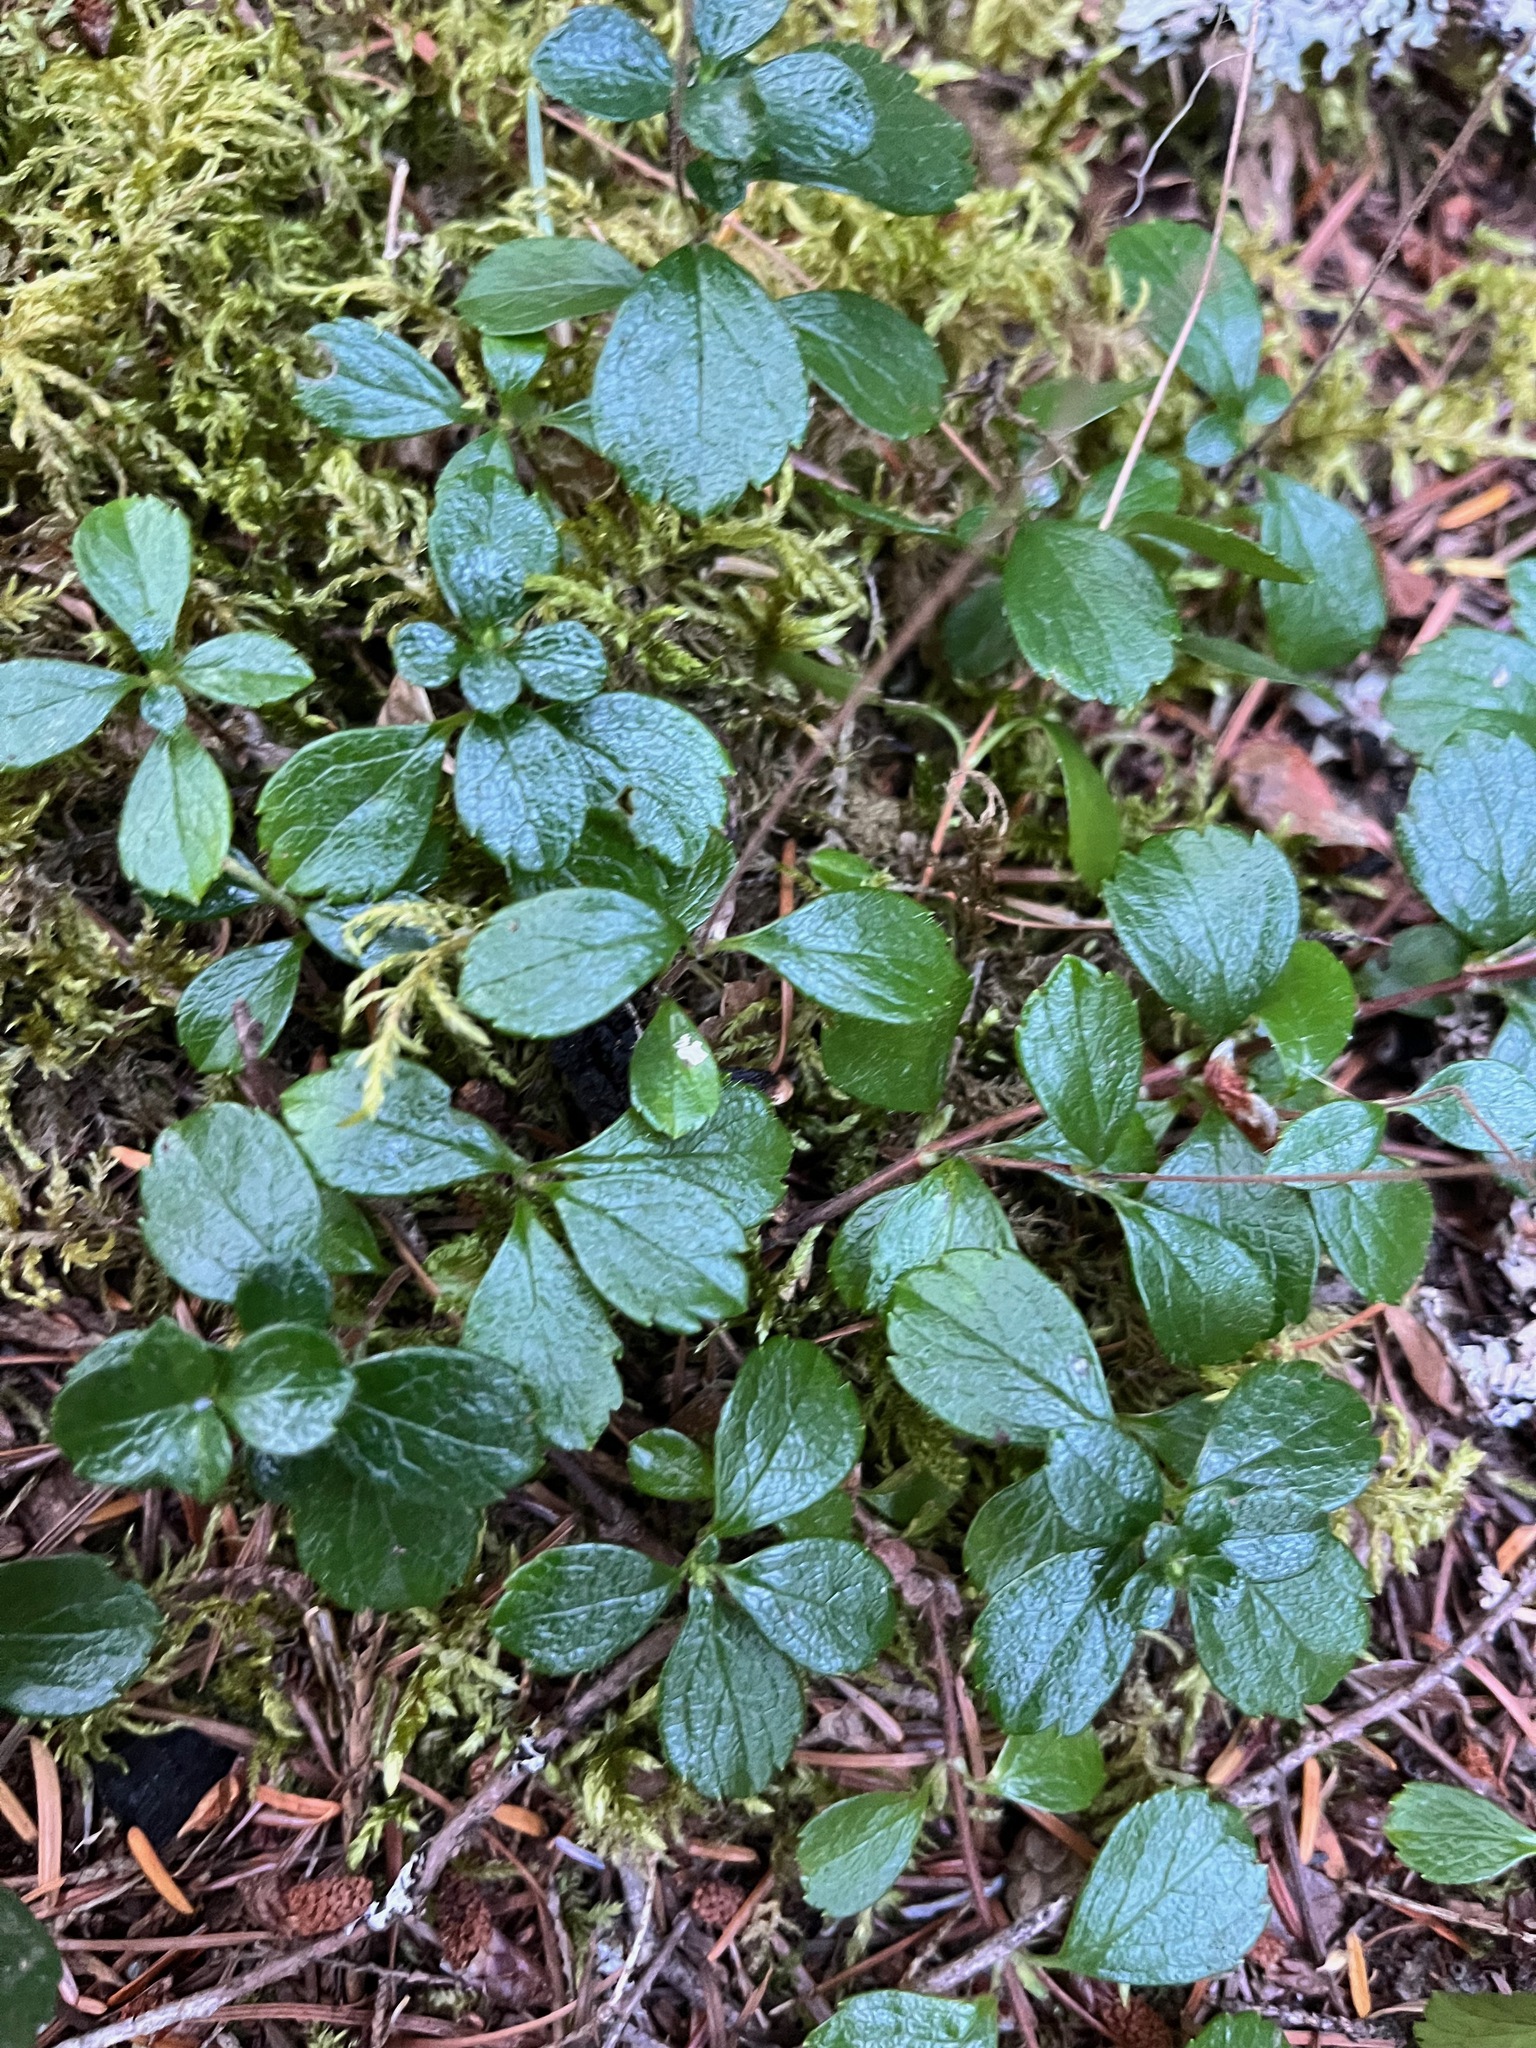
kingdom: Plantae
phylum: Tracheophyta
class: Magnoliopsida
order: Dipsacales
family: Caprifoliaceae
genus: Linnaea
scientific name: Linnaea borealis
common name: Twinflower
